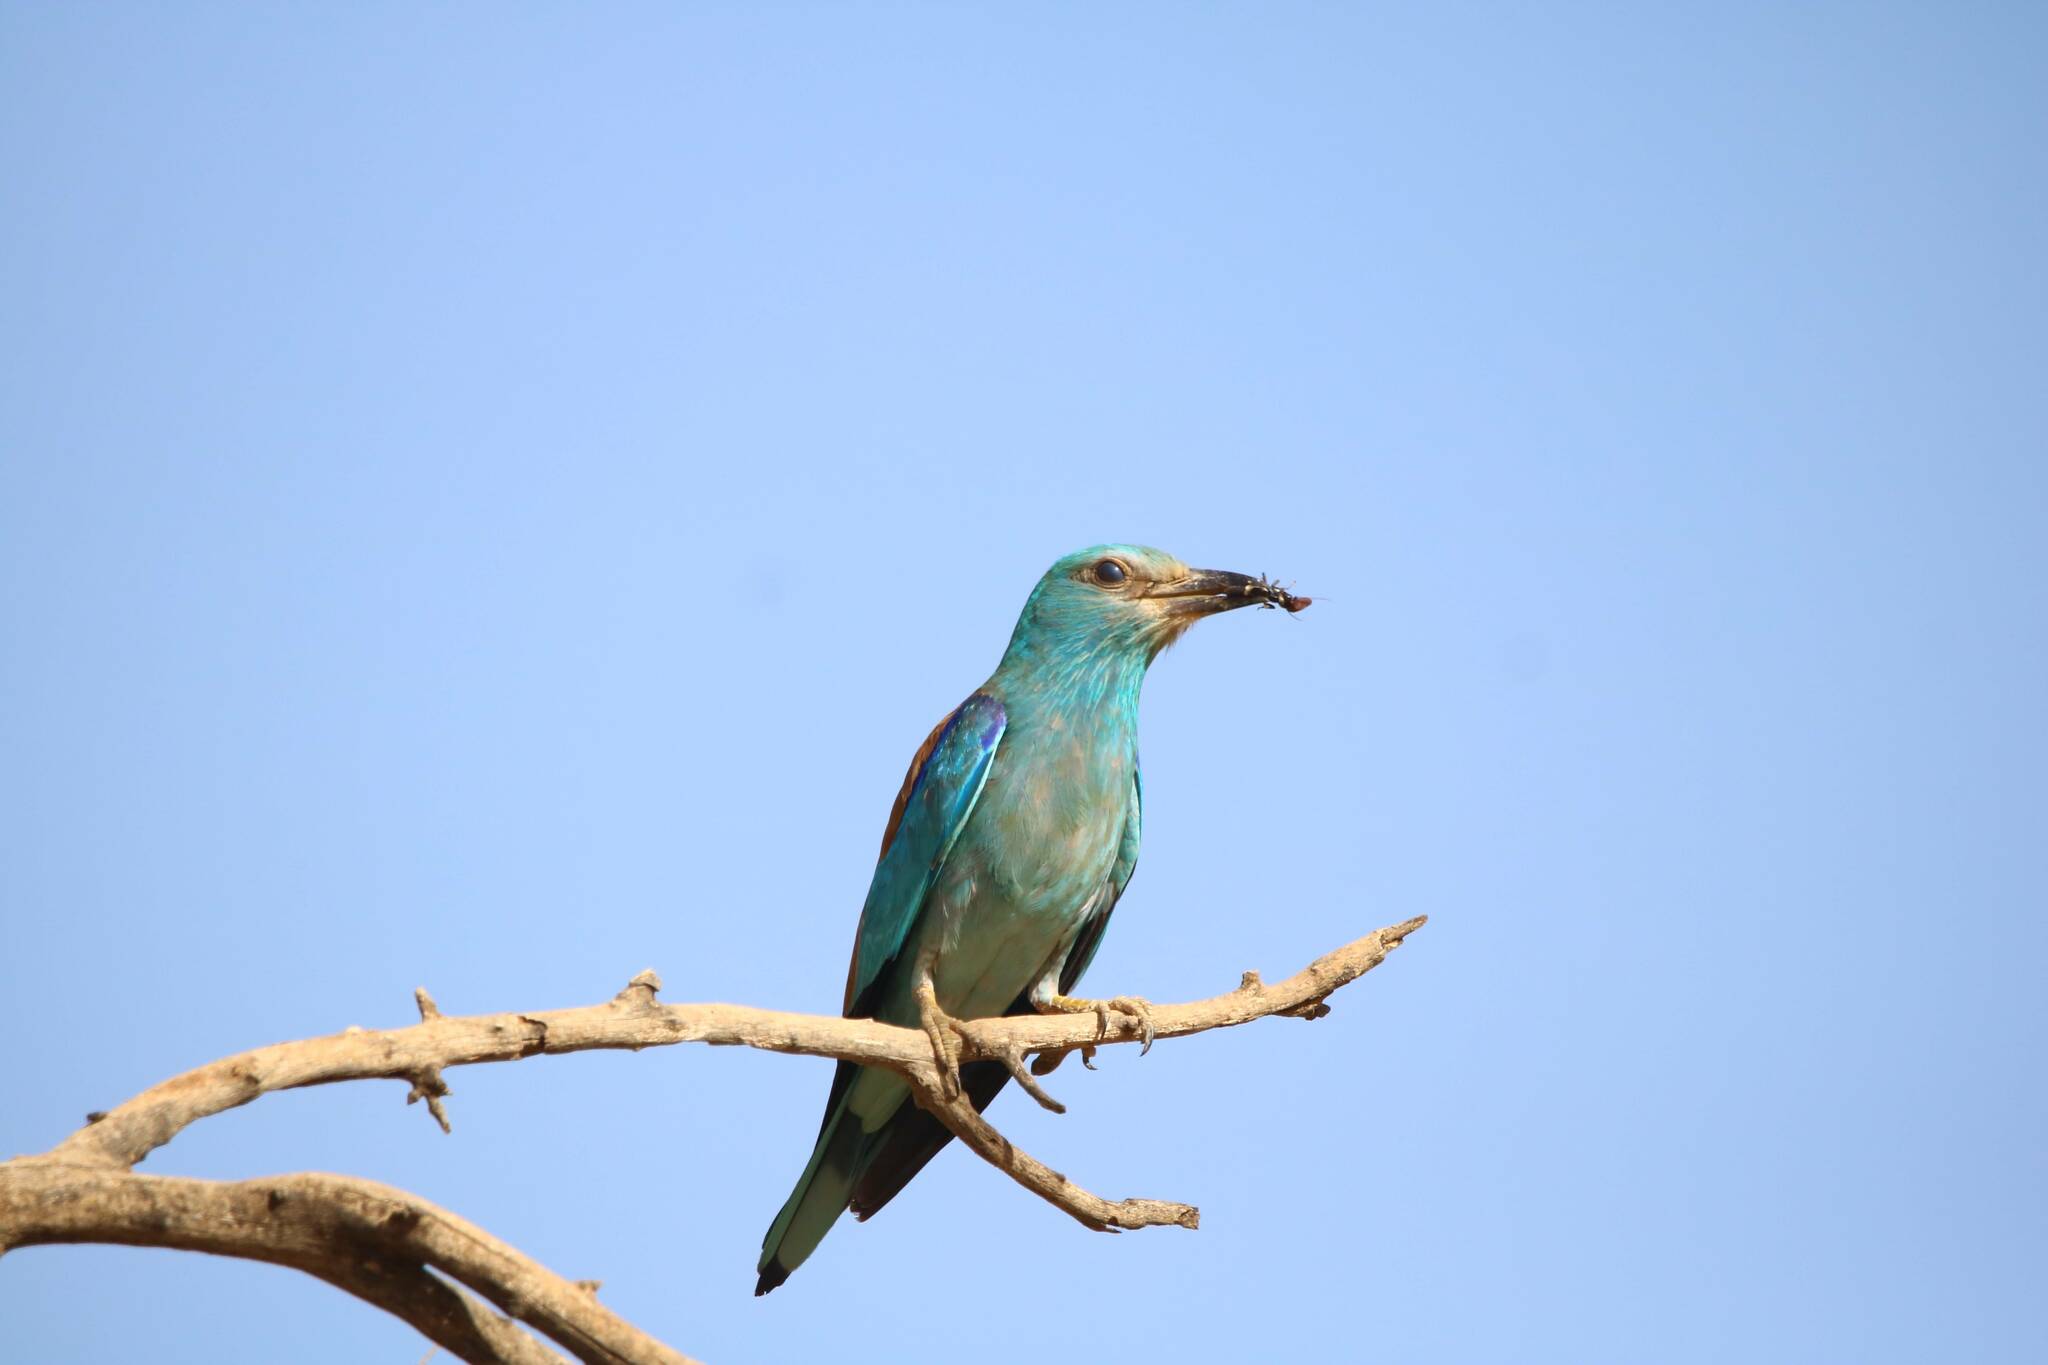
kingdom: Animalia
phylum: Chordata
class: Aves
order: Coraciiformes
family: Coraciidae
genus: Coracias
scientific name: Coracias garrulus
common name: European roller
